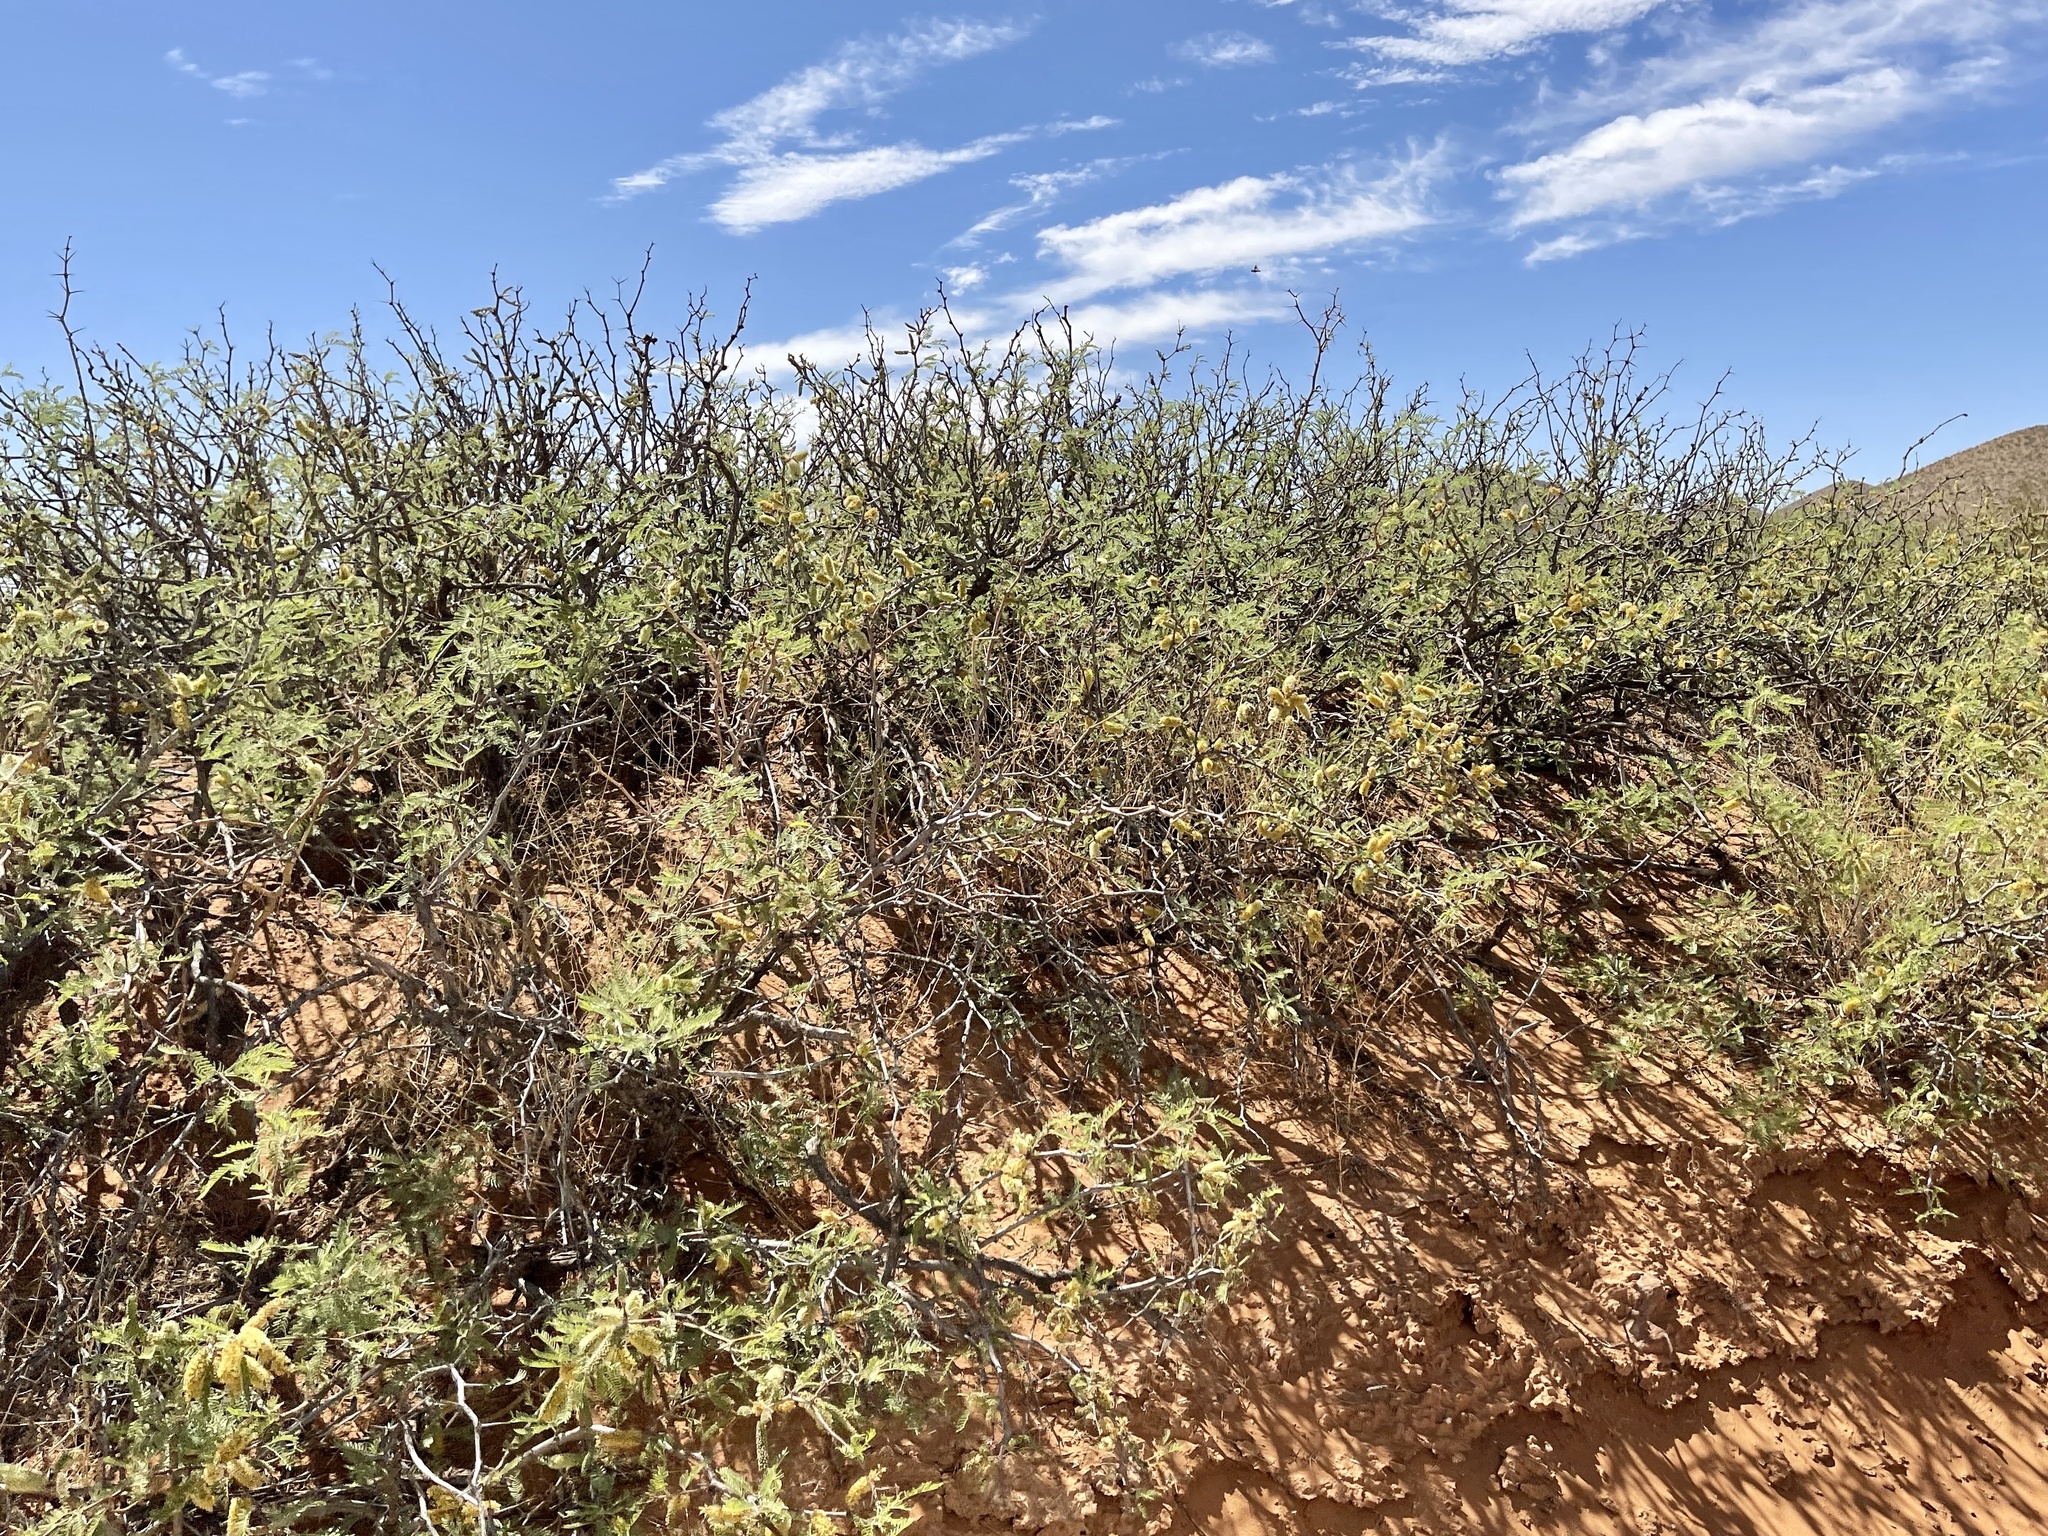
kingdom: Plantae
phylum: Tracheophyta
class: Magnoliopsida
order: Fabales
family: Fabaceae
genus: Prosopis
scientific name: Prosopis glandulosa
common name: Honey mesquite
